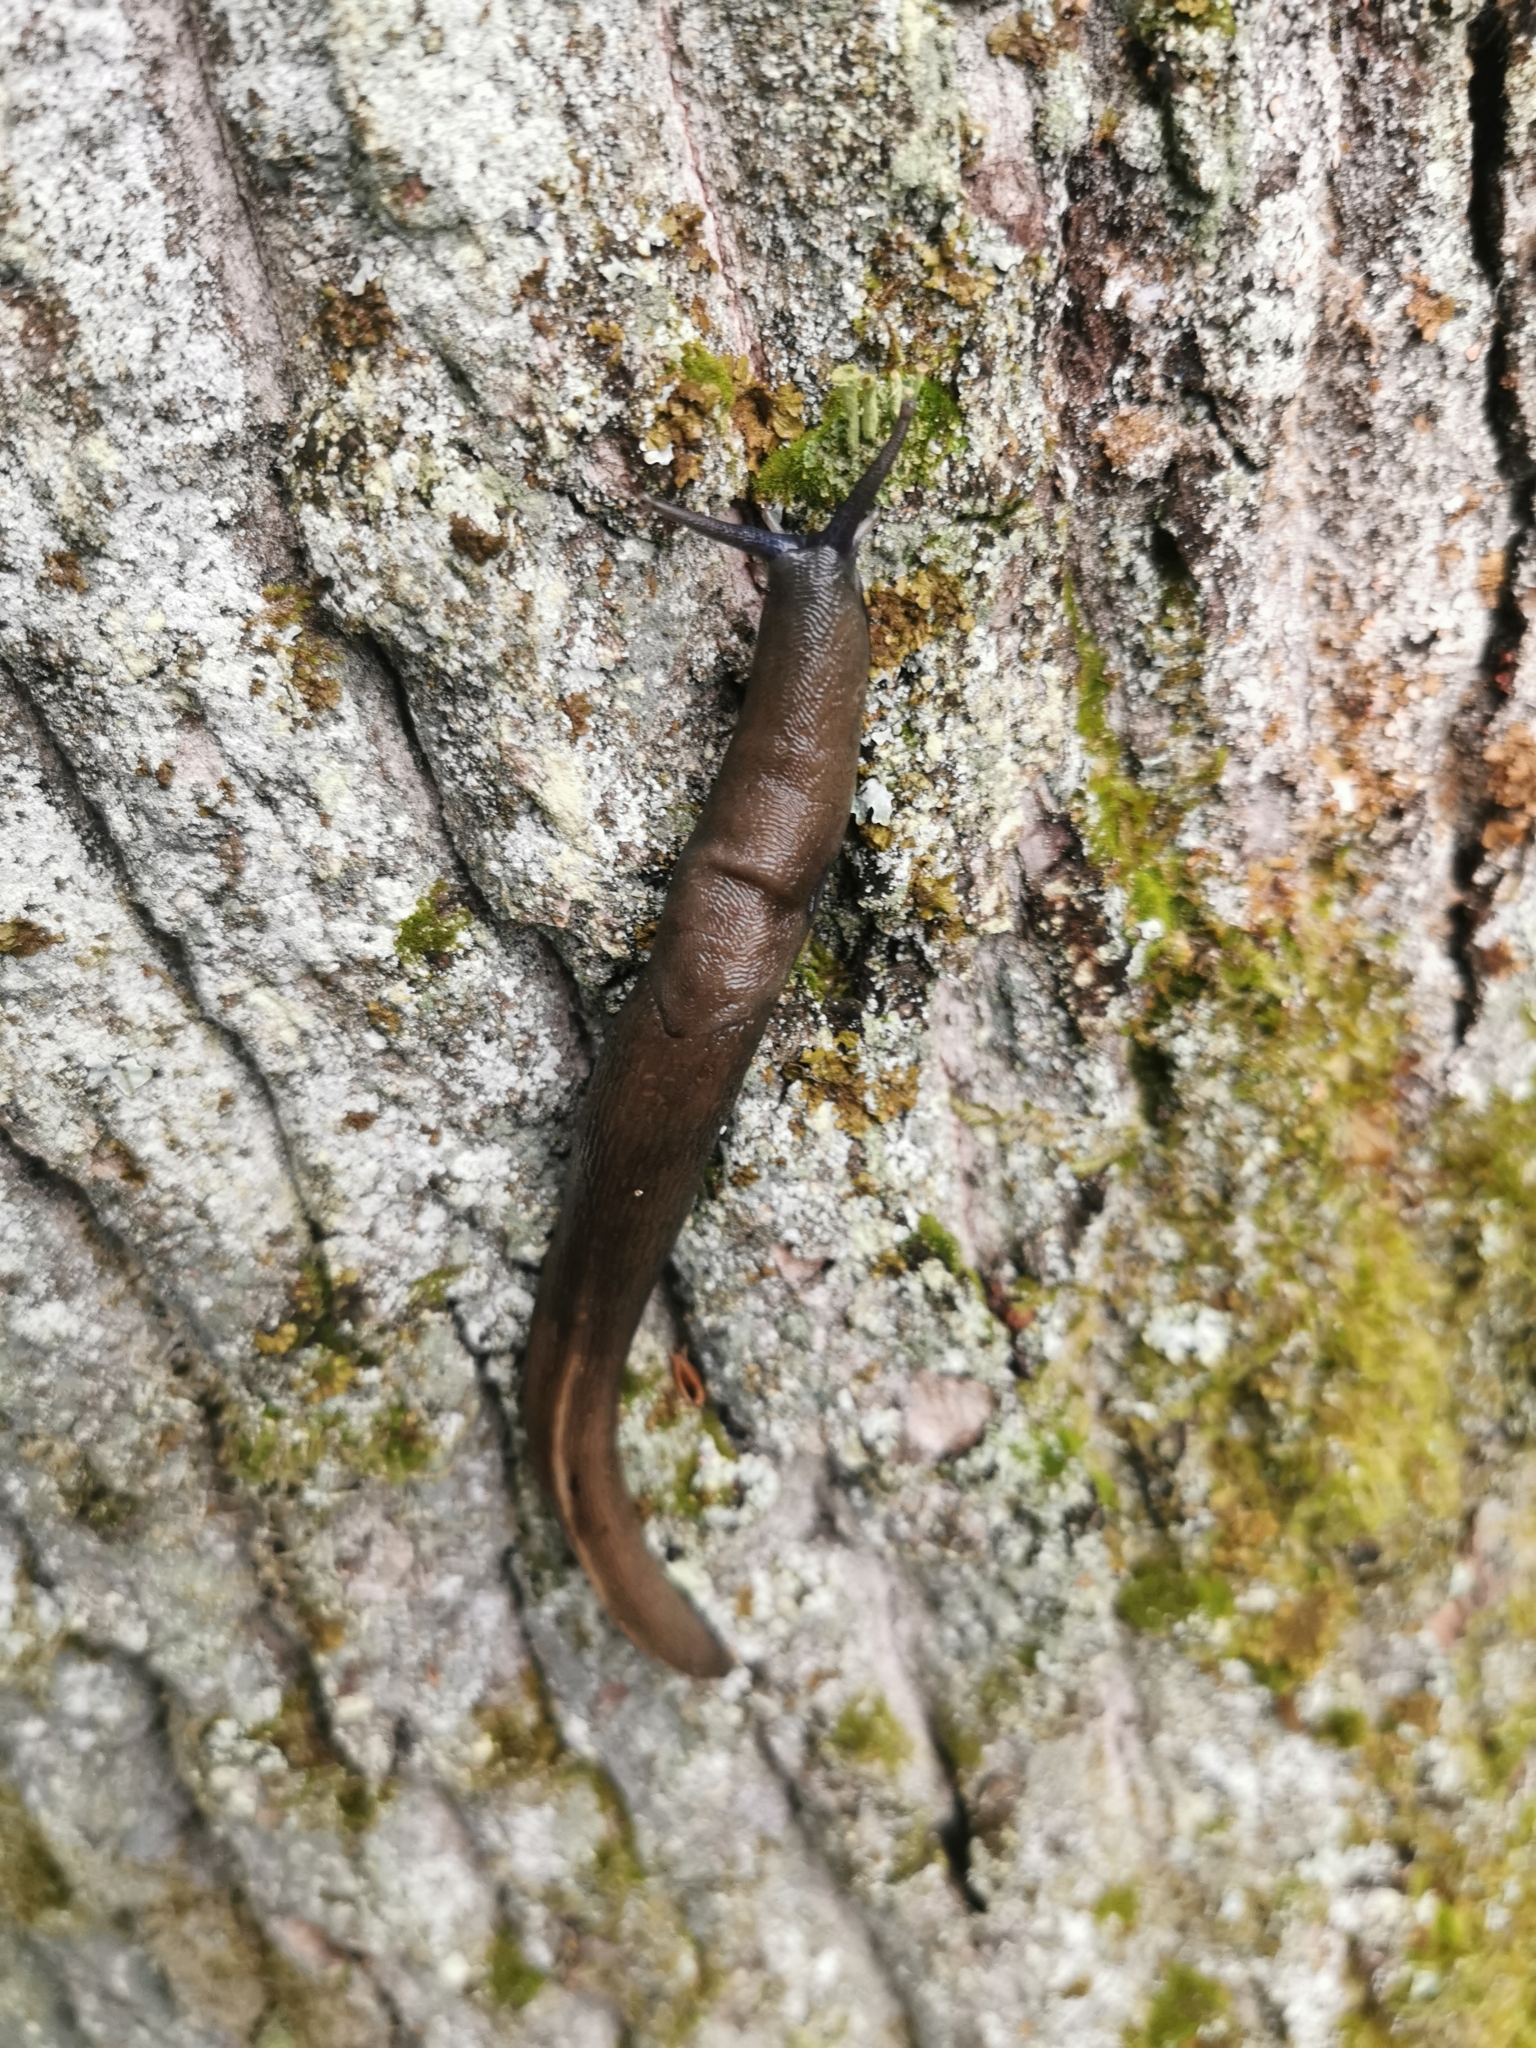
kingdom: Animalia
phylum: Mollusca
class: Gastropoda
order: Stylommatophora
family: Limacidae
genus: Limax
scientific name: Limax cinereoniger
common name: Ash-black slug
